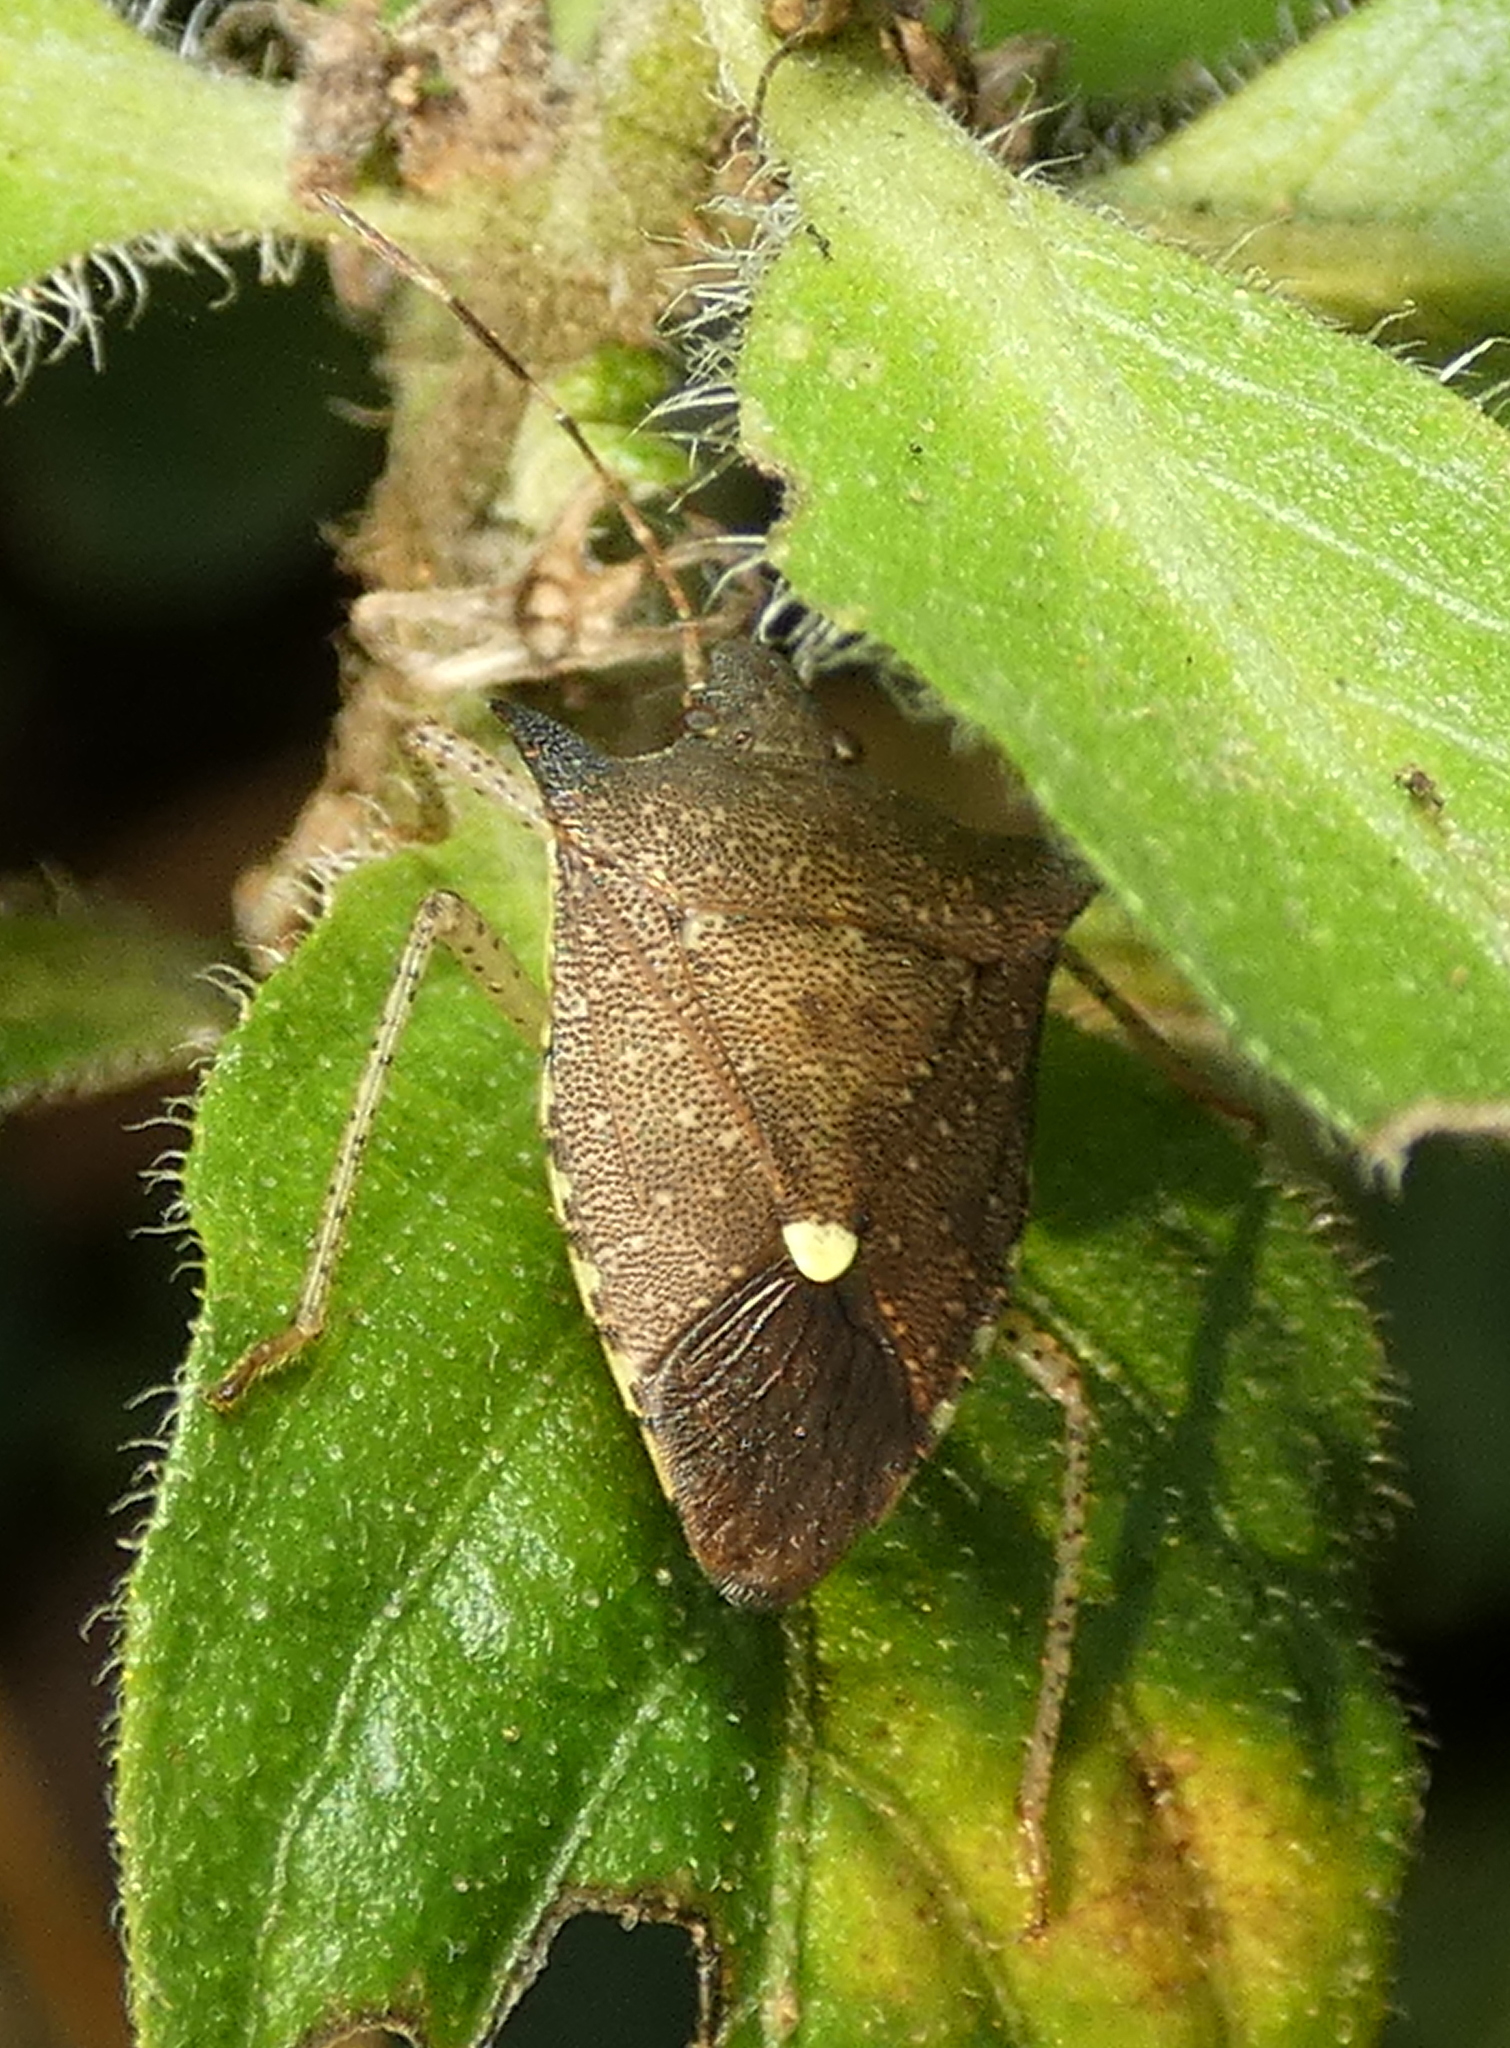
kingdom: Animalia
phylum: Arthropoda
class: Insecta
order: Hemiptera
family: Pentatomidae
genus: Proxys
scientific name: Proxys albopunctulatus
